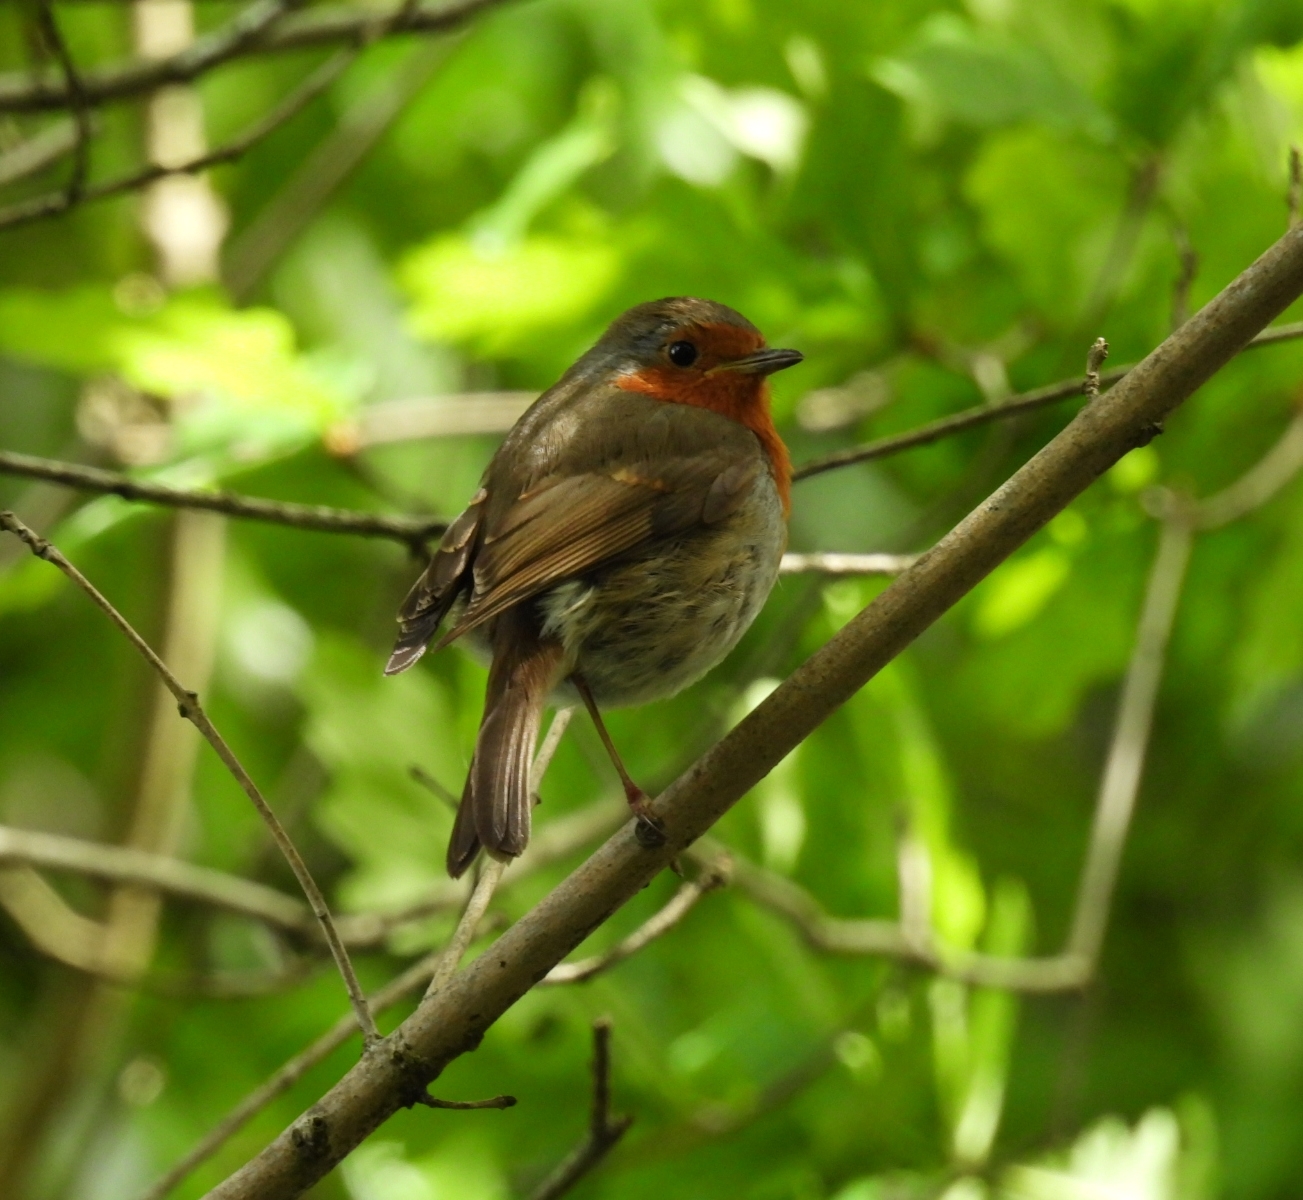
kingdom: Animalia
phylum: Chordata
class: Aves
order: Passeriformes
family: Muscicapidae
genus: Erithacus
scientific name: Erithacus rubecula
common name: European robin
